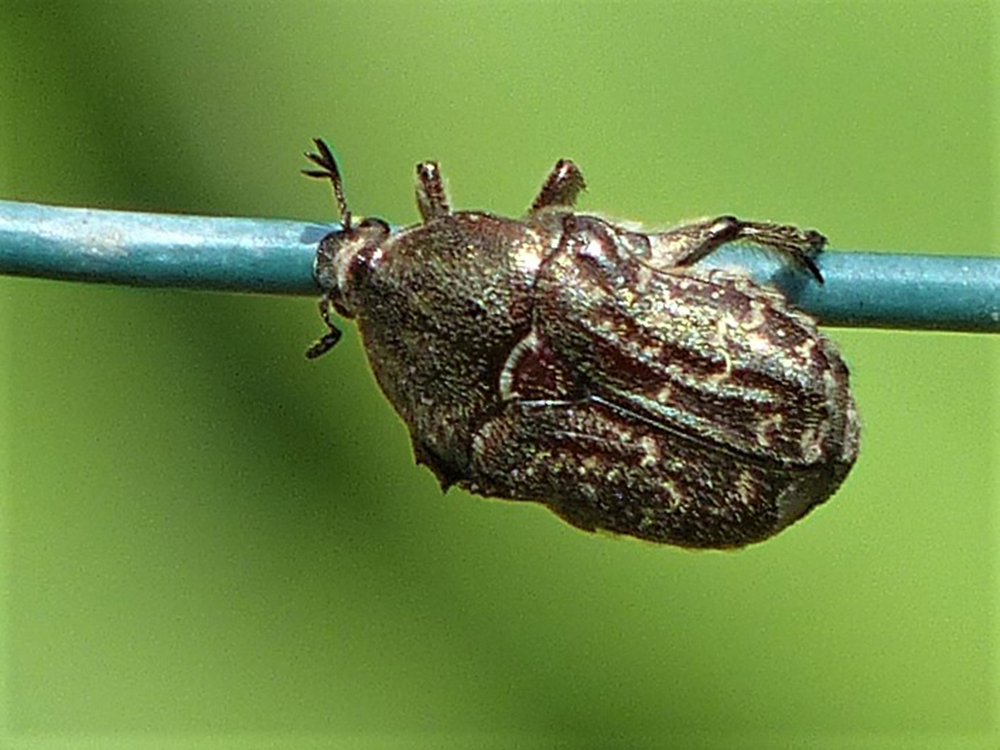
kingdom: Animalia
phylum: Arthropoda
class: Insecta
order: Coleoptera
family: Scarabaeidae
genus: Euphoria
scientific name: Euphoria sepulcralis
